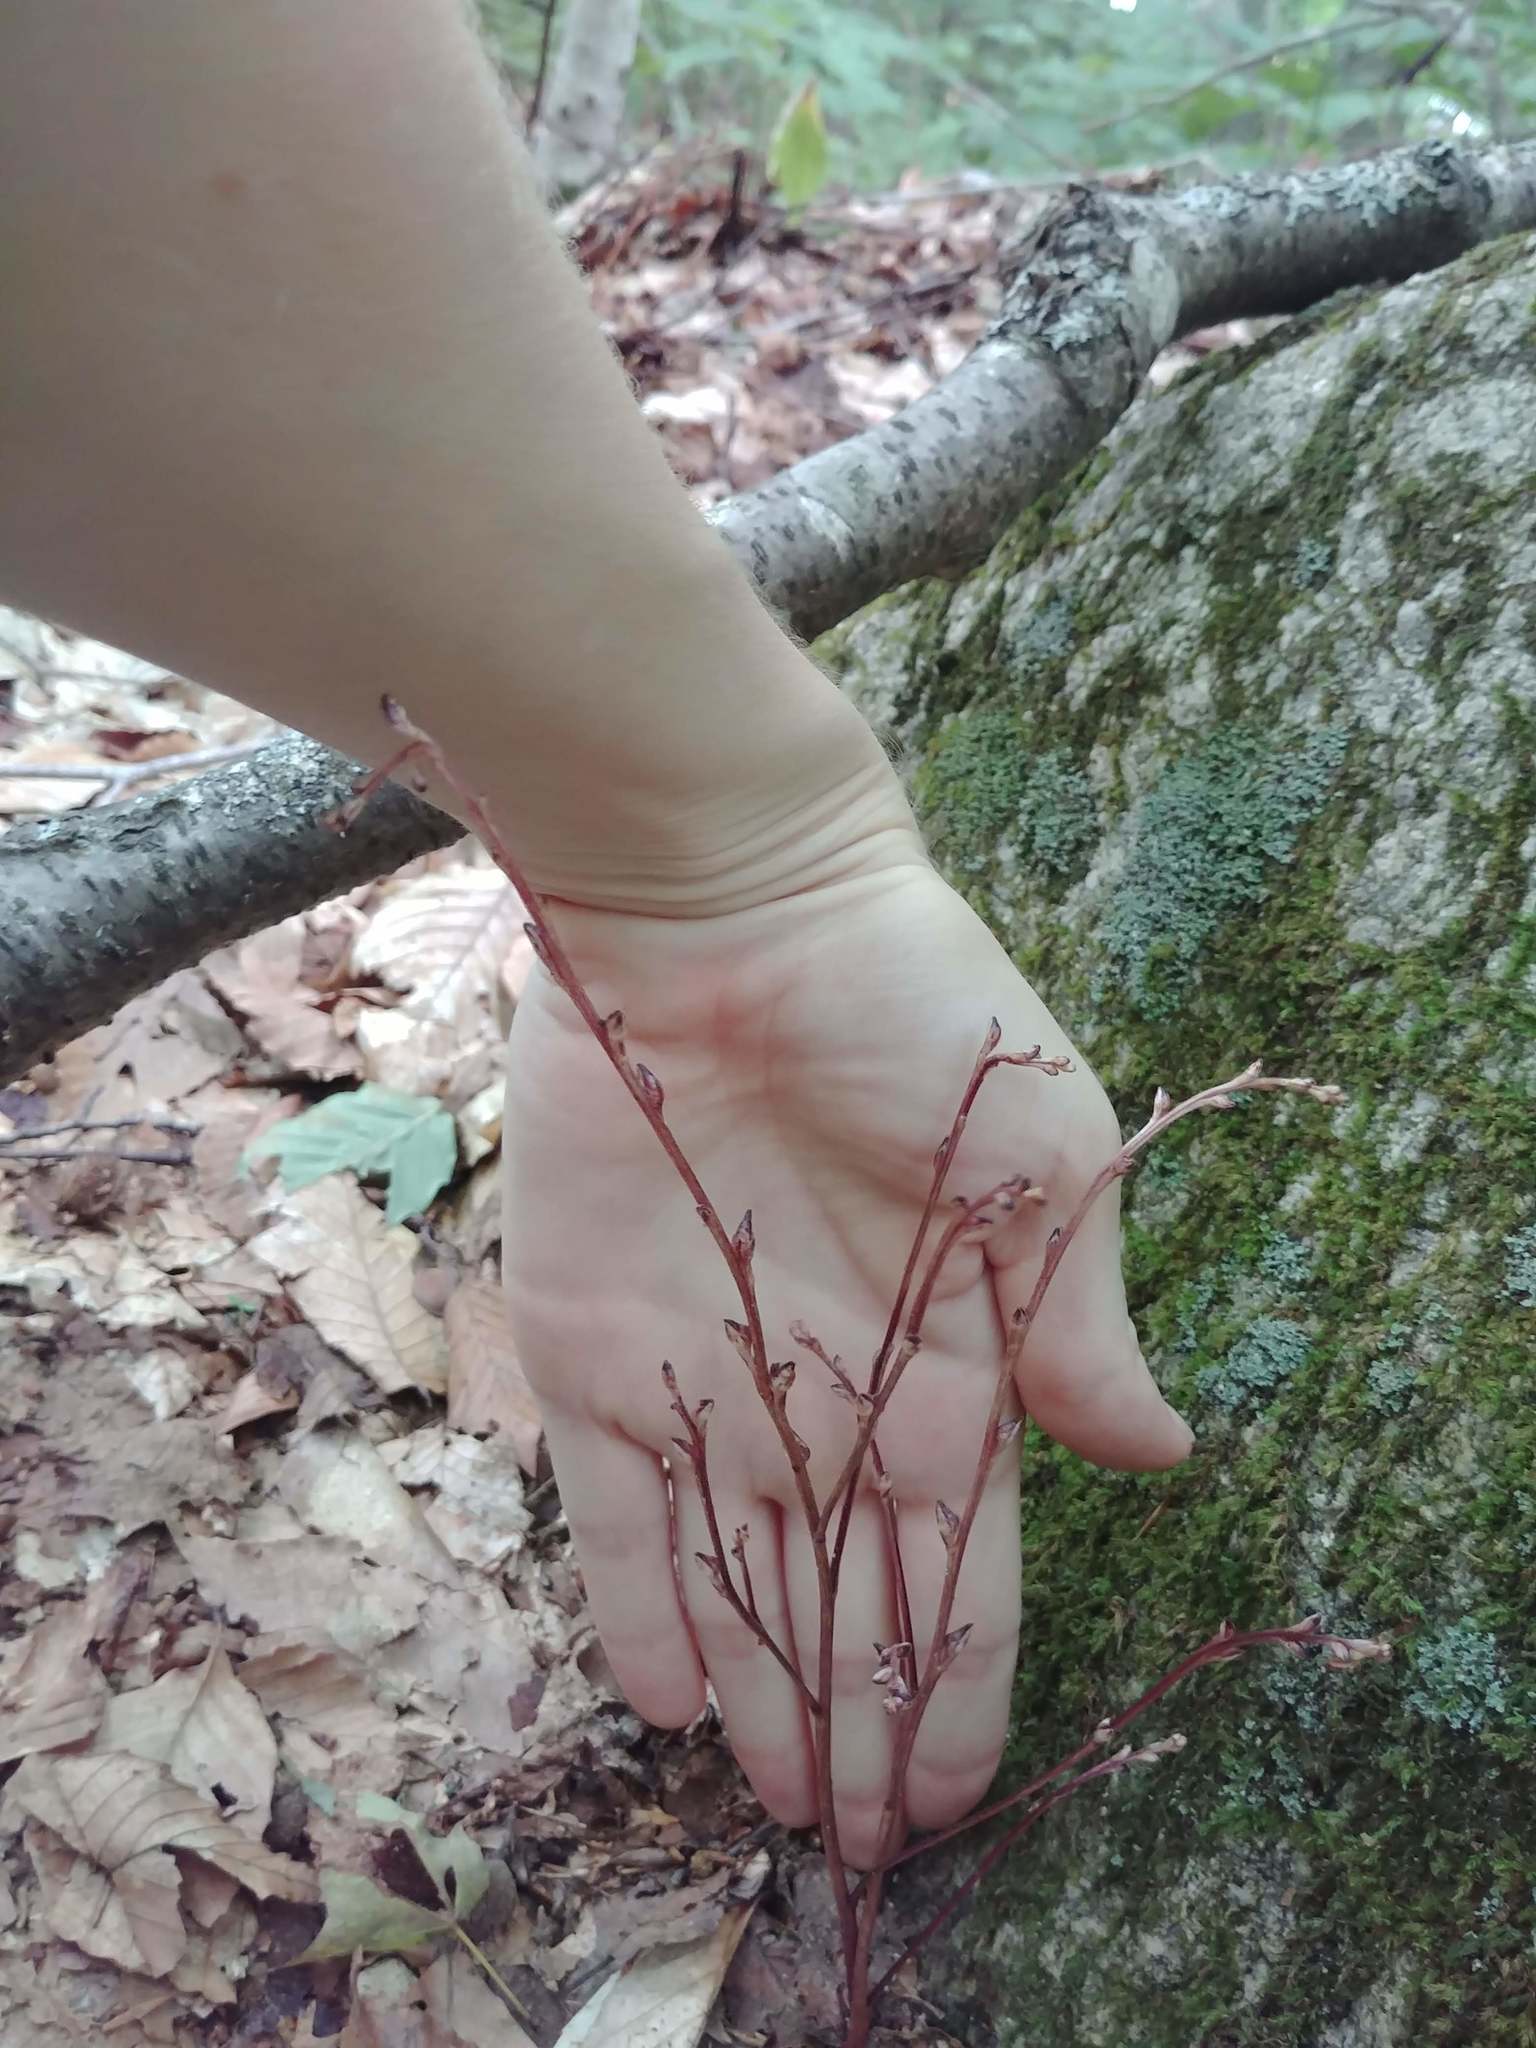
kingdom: Plantae
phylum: Tracheophyta
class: Magnoliopsida
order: Lamiales
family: Orobanchaceae
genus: Epifagus
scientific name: Epifagus virginiana
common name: Beechdrops
